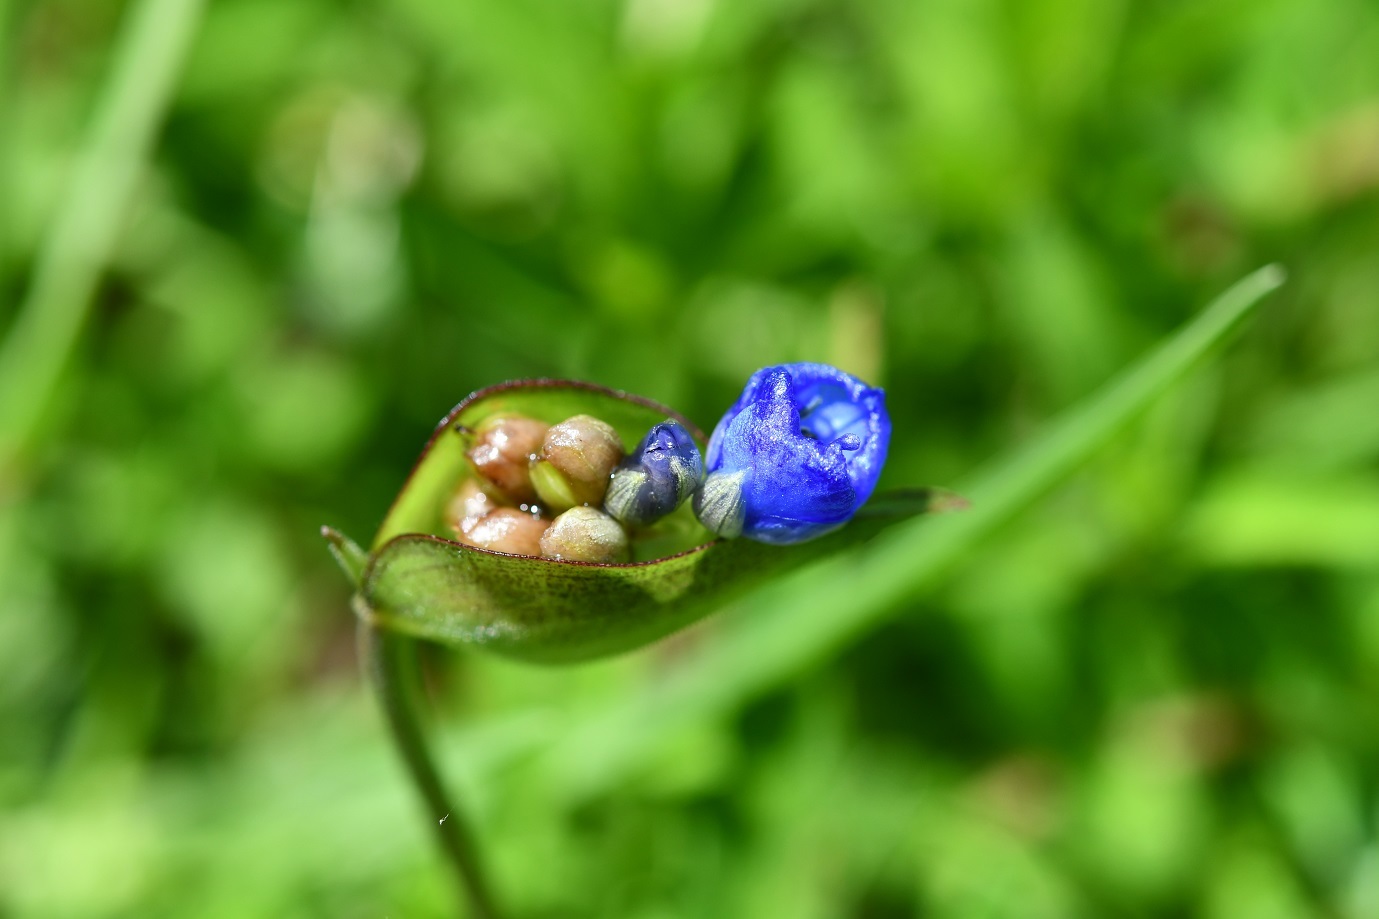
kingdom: Plantae
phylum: Tracheophyta
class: Liliopsida
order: Commelinales
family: Commelinaceae
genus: Commelina
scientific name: Commelina tuberosa
